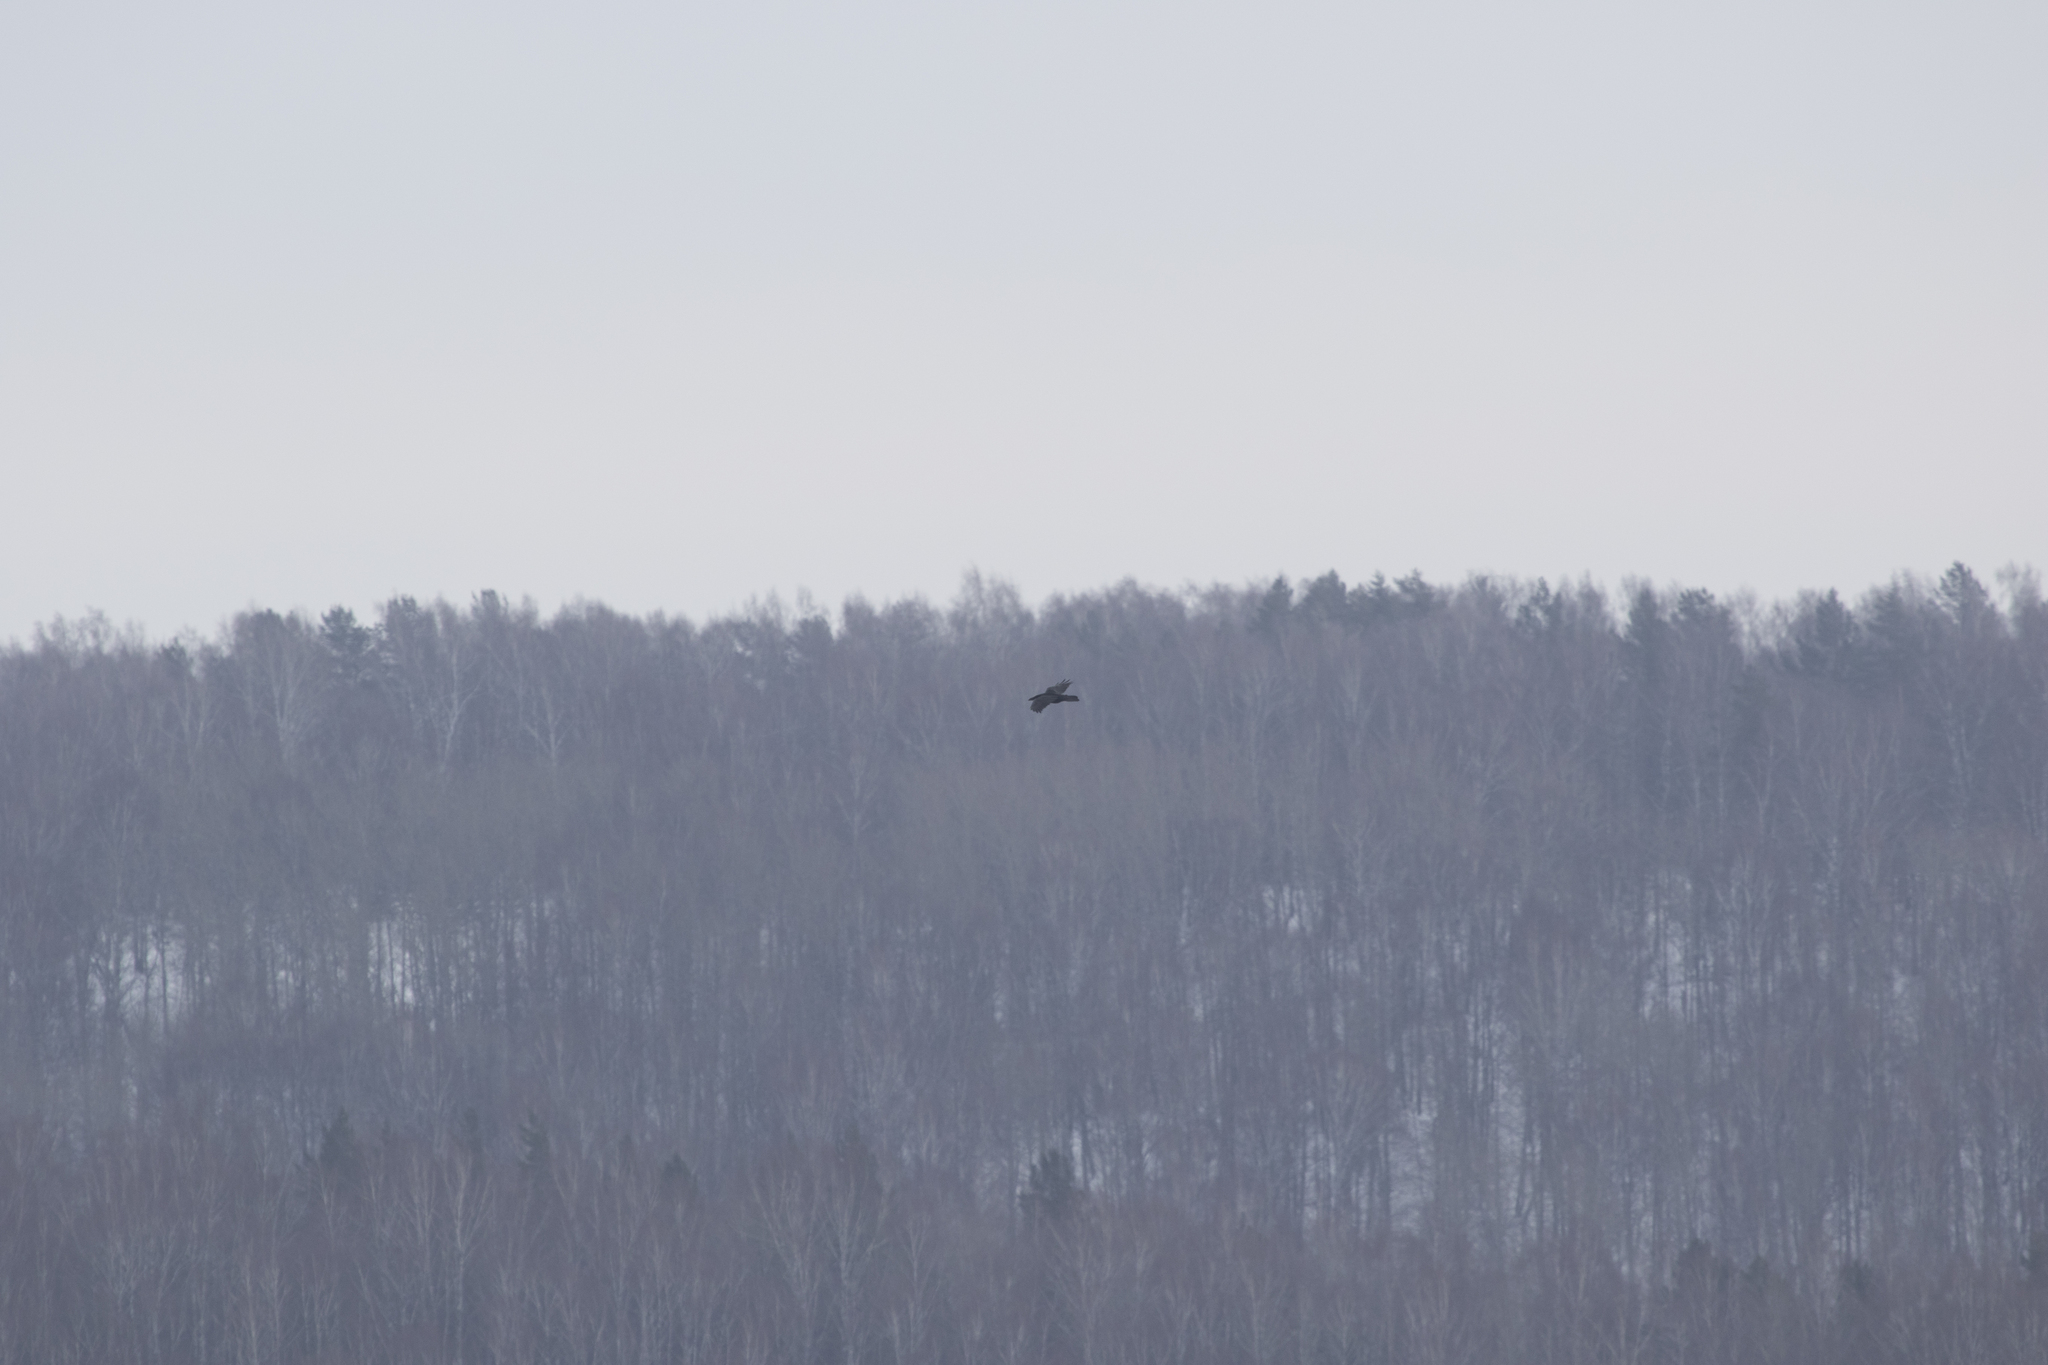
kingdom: Animalia
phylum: Chordata
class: Aves
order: Passeriformes
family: Corvidae
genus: Corvus
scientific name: Corvus corax
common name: Common raven
